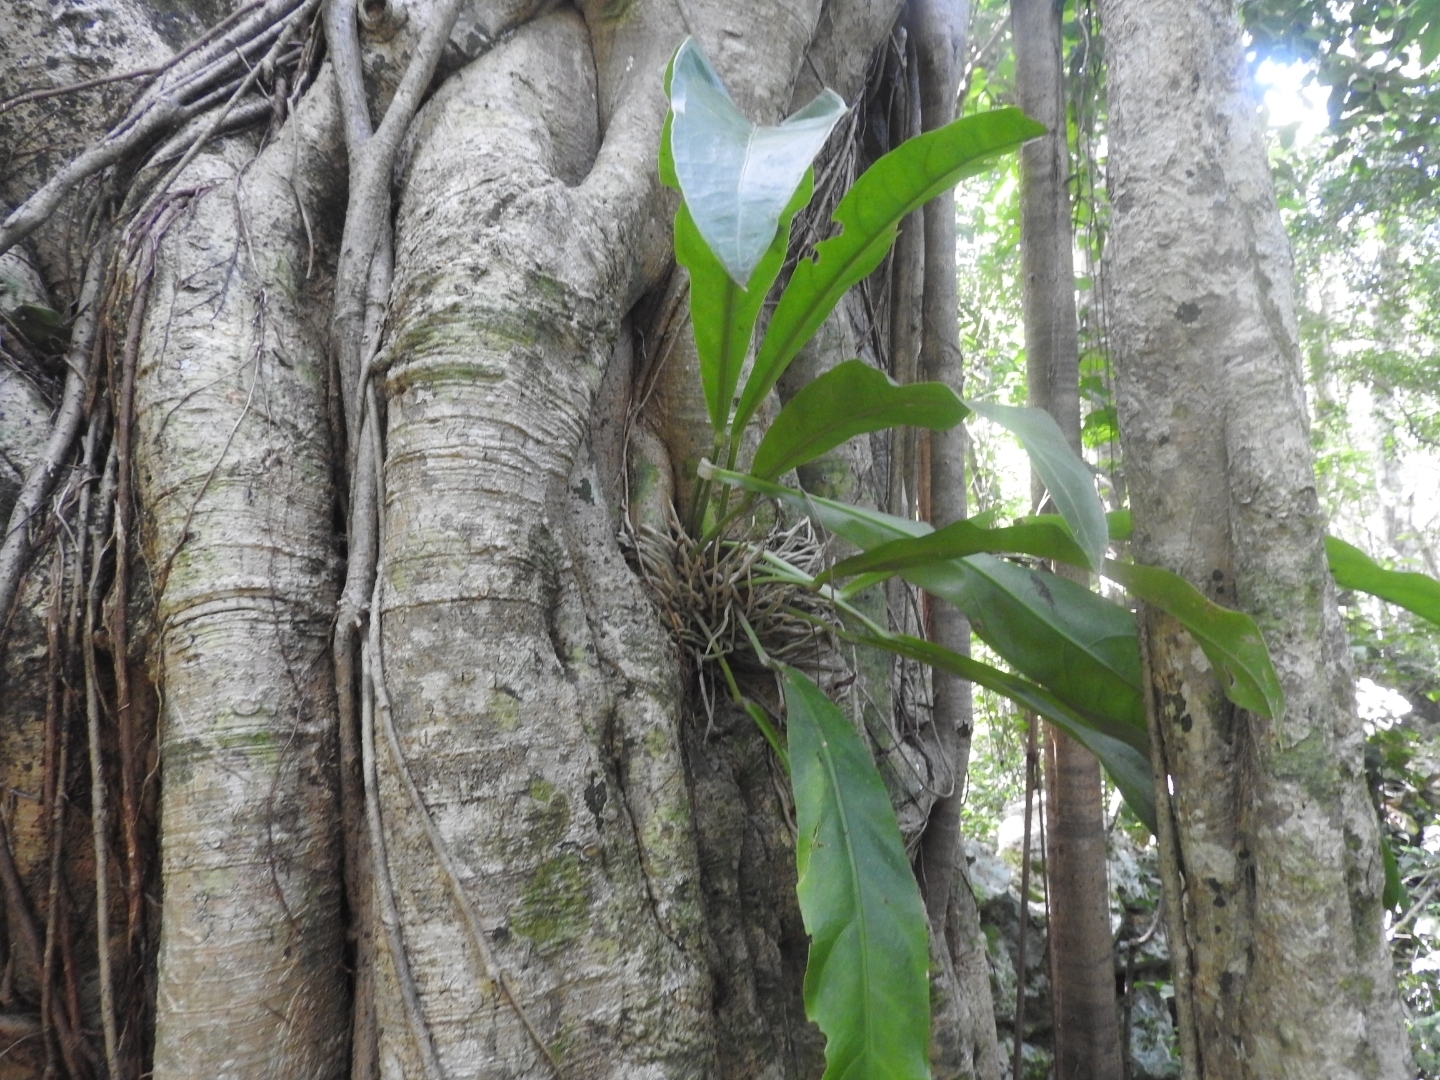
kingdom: Plantae
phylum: Tracheophyta
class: Liliopsida
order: Alismatales
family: Araceae
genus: Anthurium
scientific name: Anthurium schlechtendalii
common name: Laceleaf
